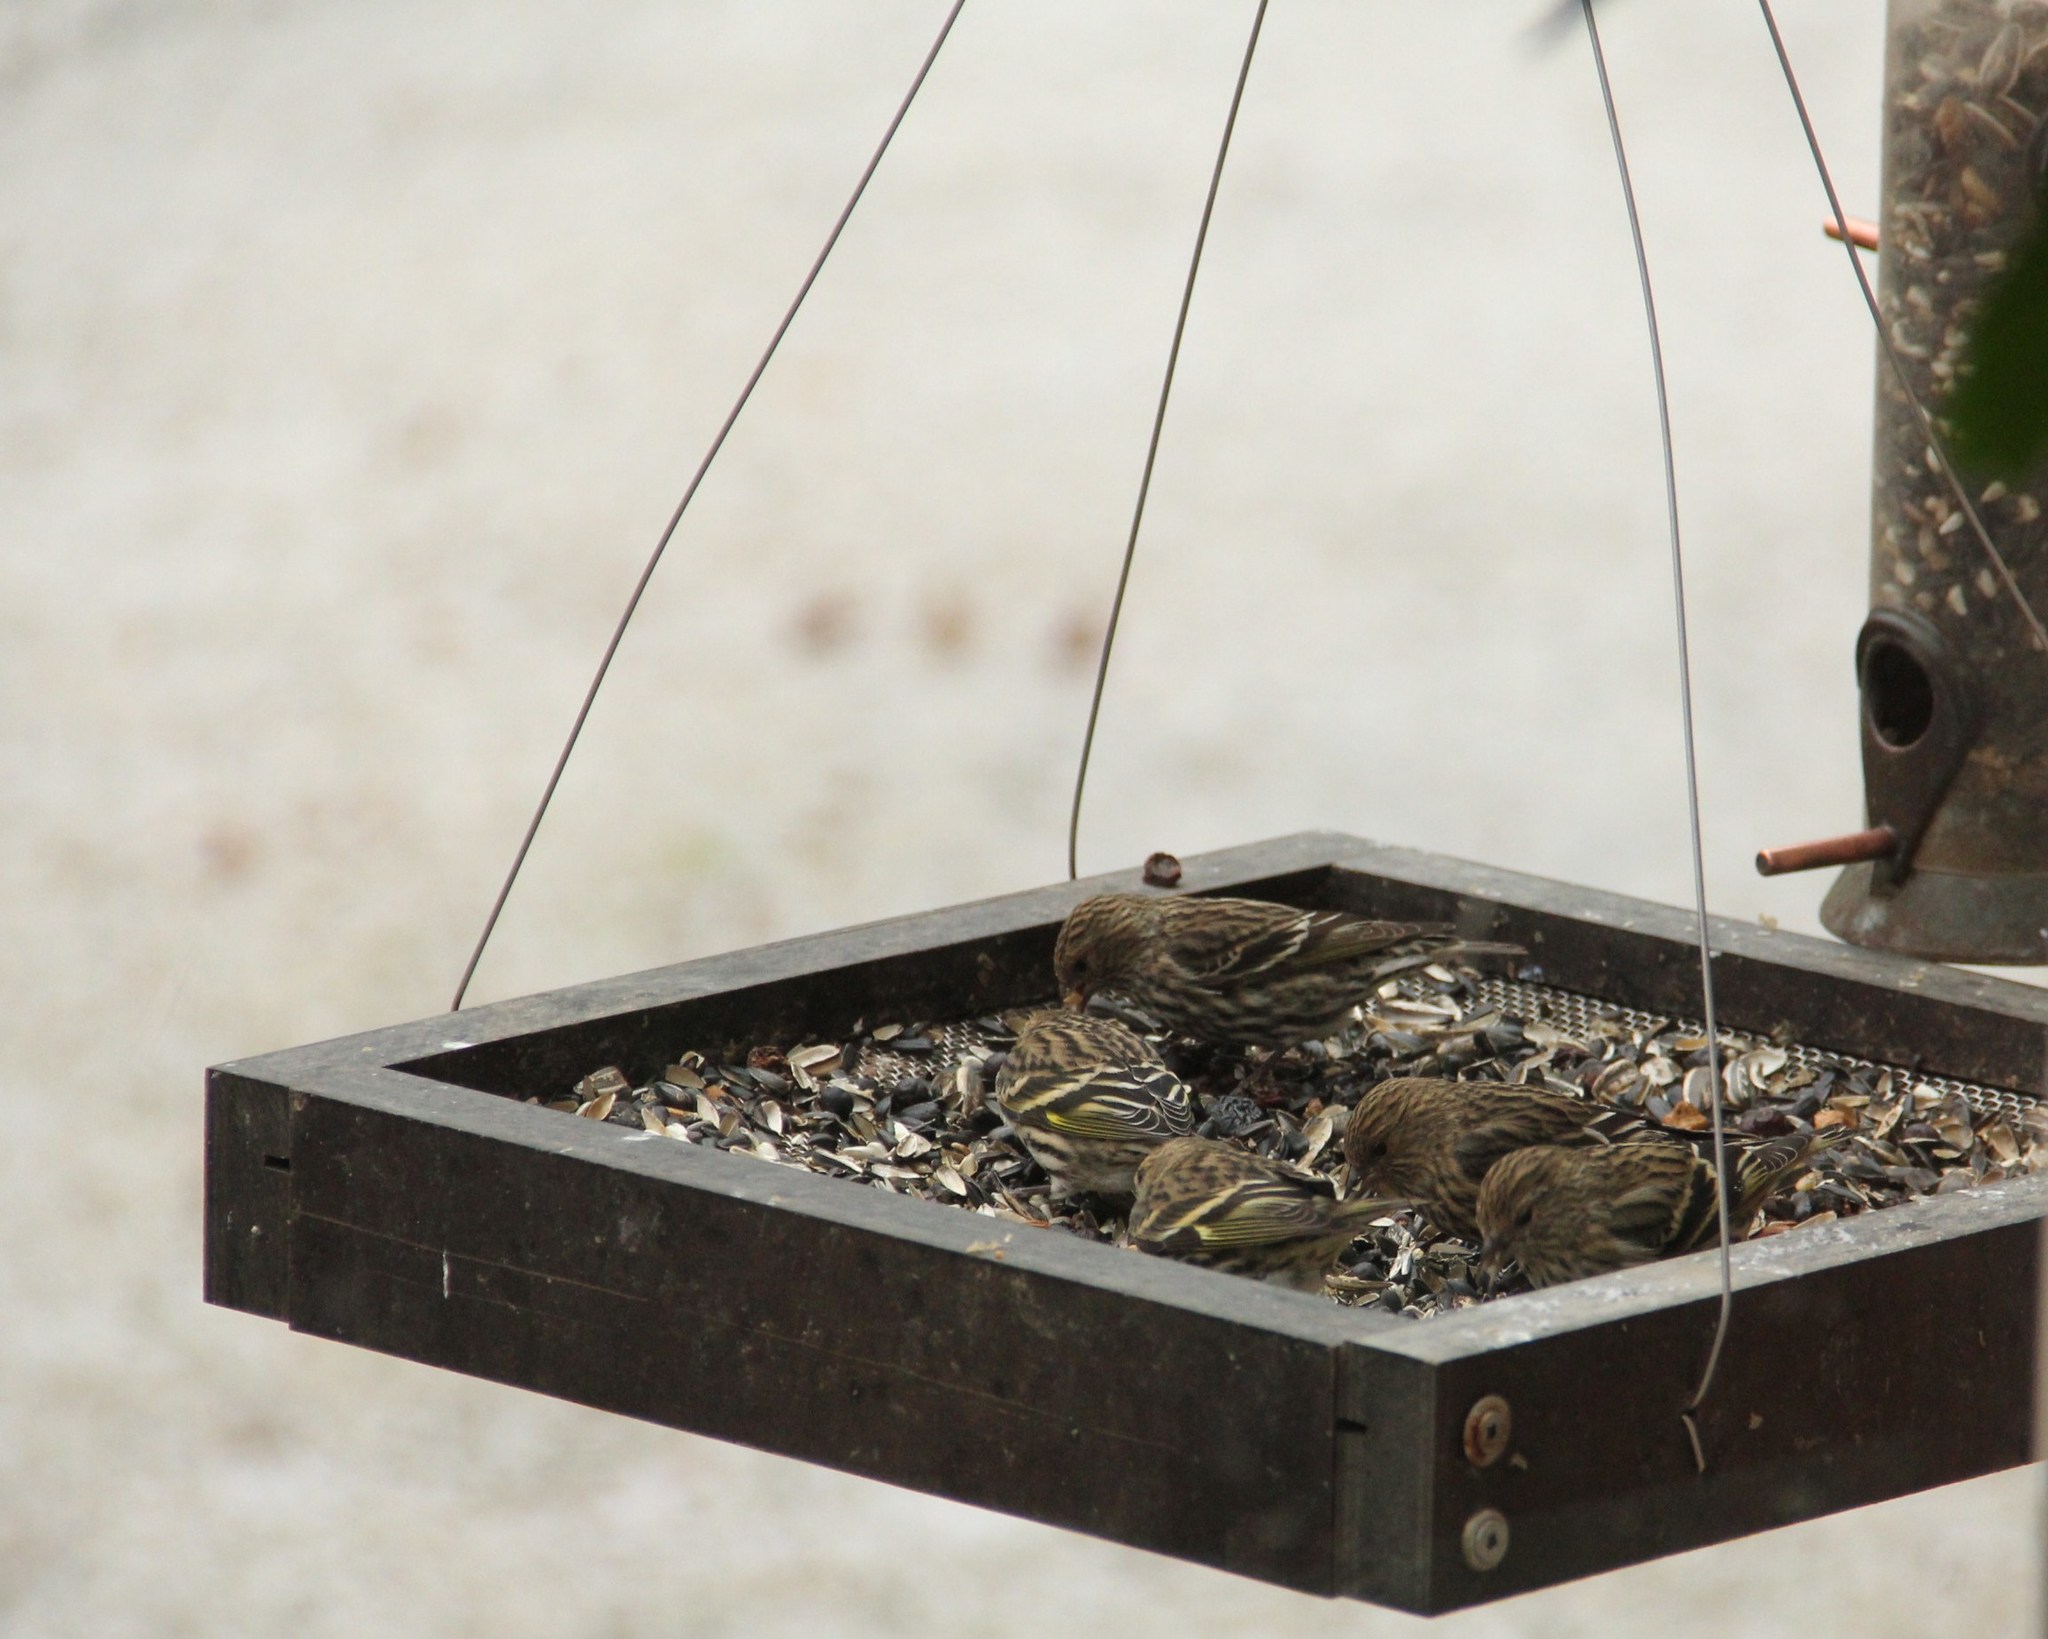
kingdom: Animalia
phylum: Chordata
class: Aves
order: Passeriformes
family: Fringillidae
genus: Spinus
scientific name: Spinus pinus
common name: Pine siskin
